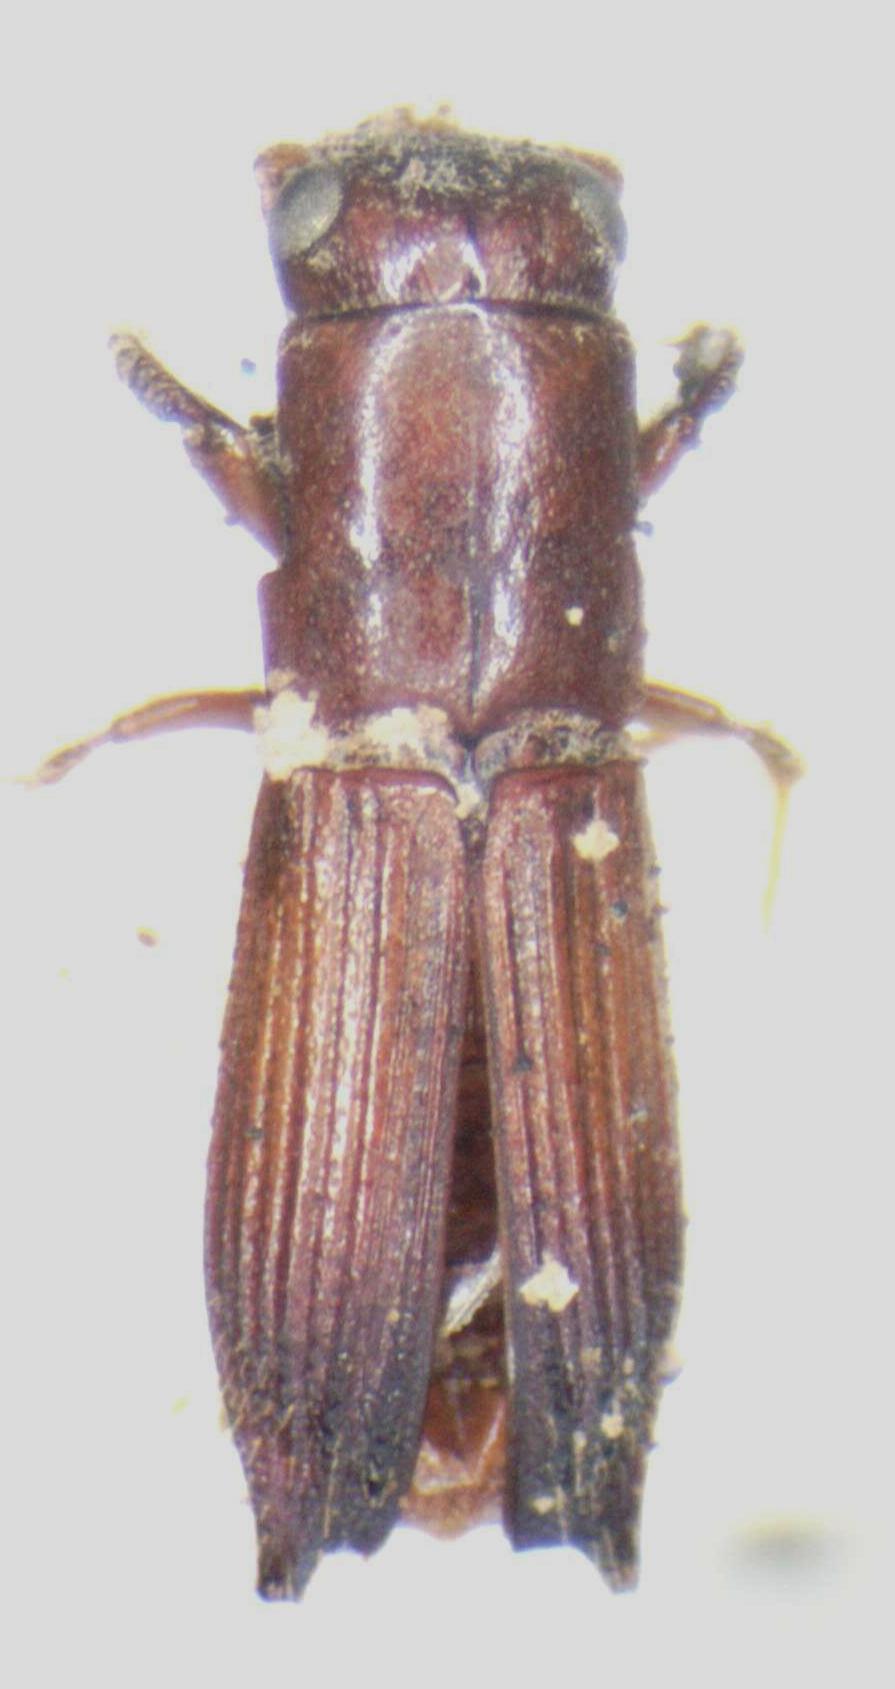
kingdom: Animalia
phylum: Arthropoda
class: Insecta
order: Coleoptera
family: Curculionidae
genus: Euplatypus
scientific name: Euplatypus parallelus
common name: Weevil
